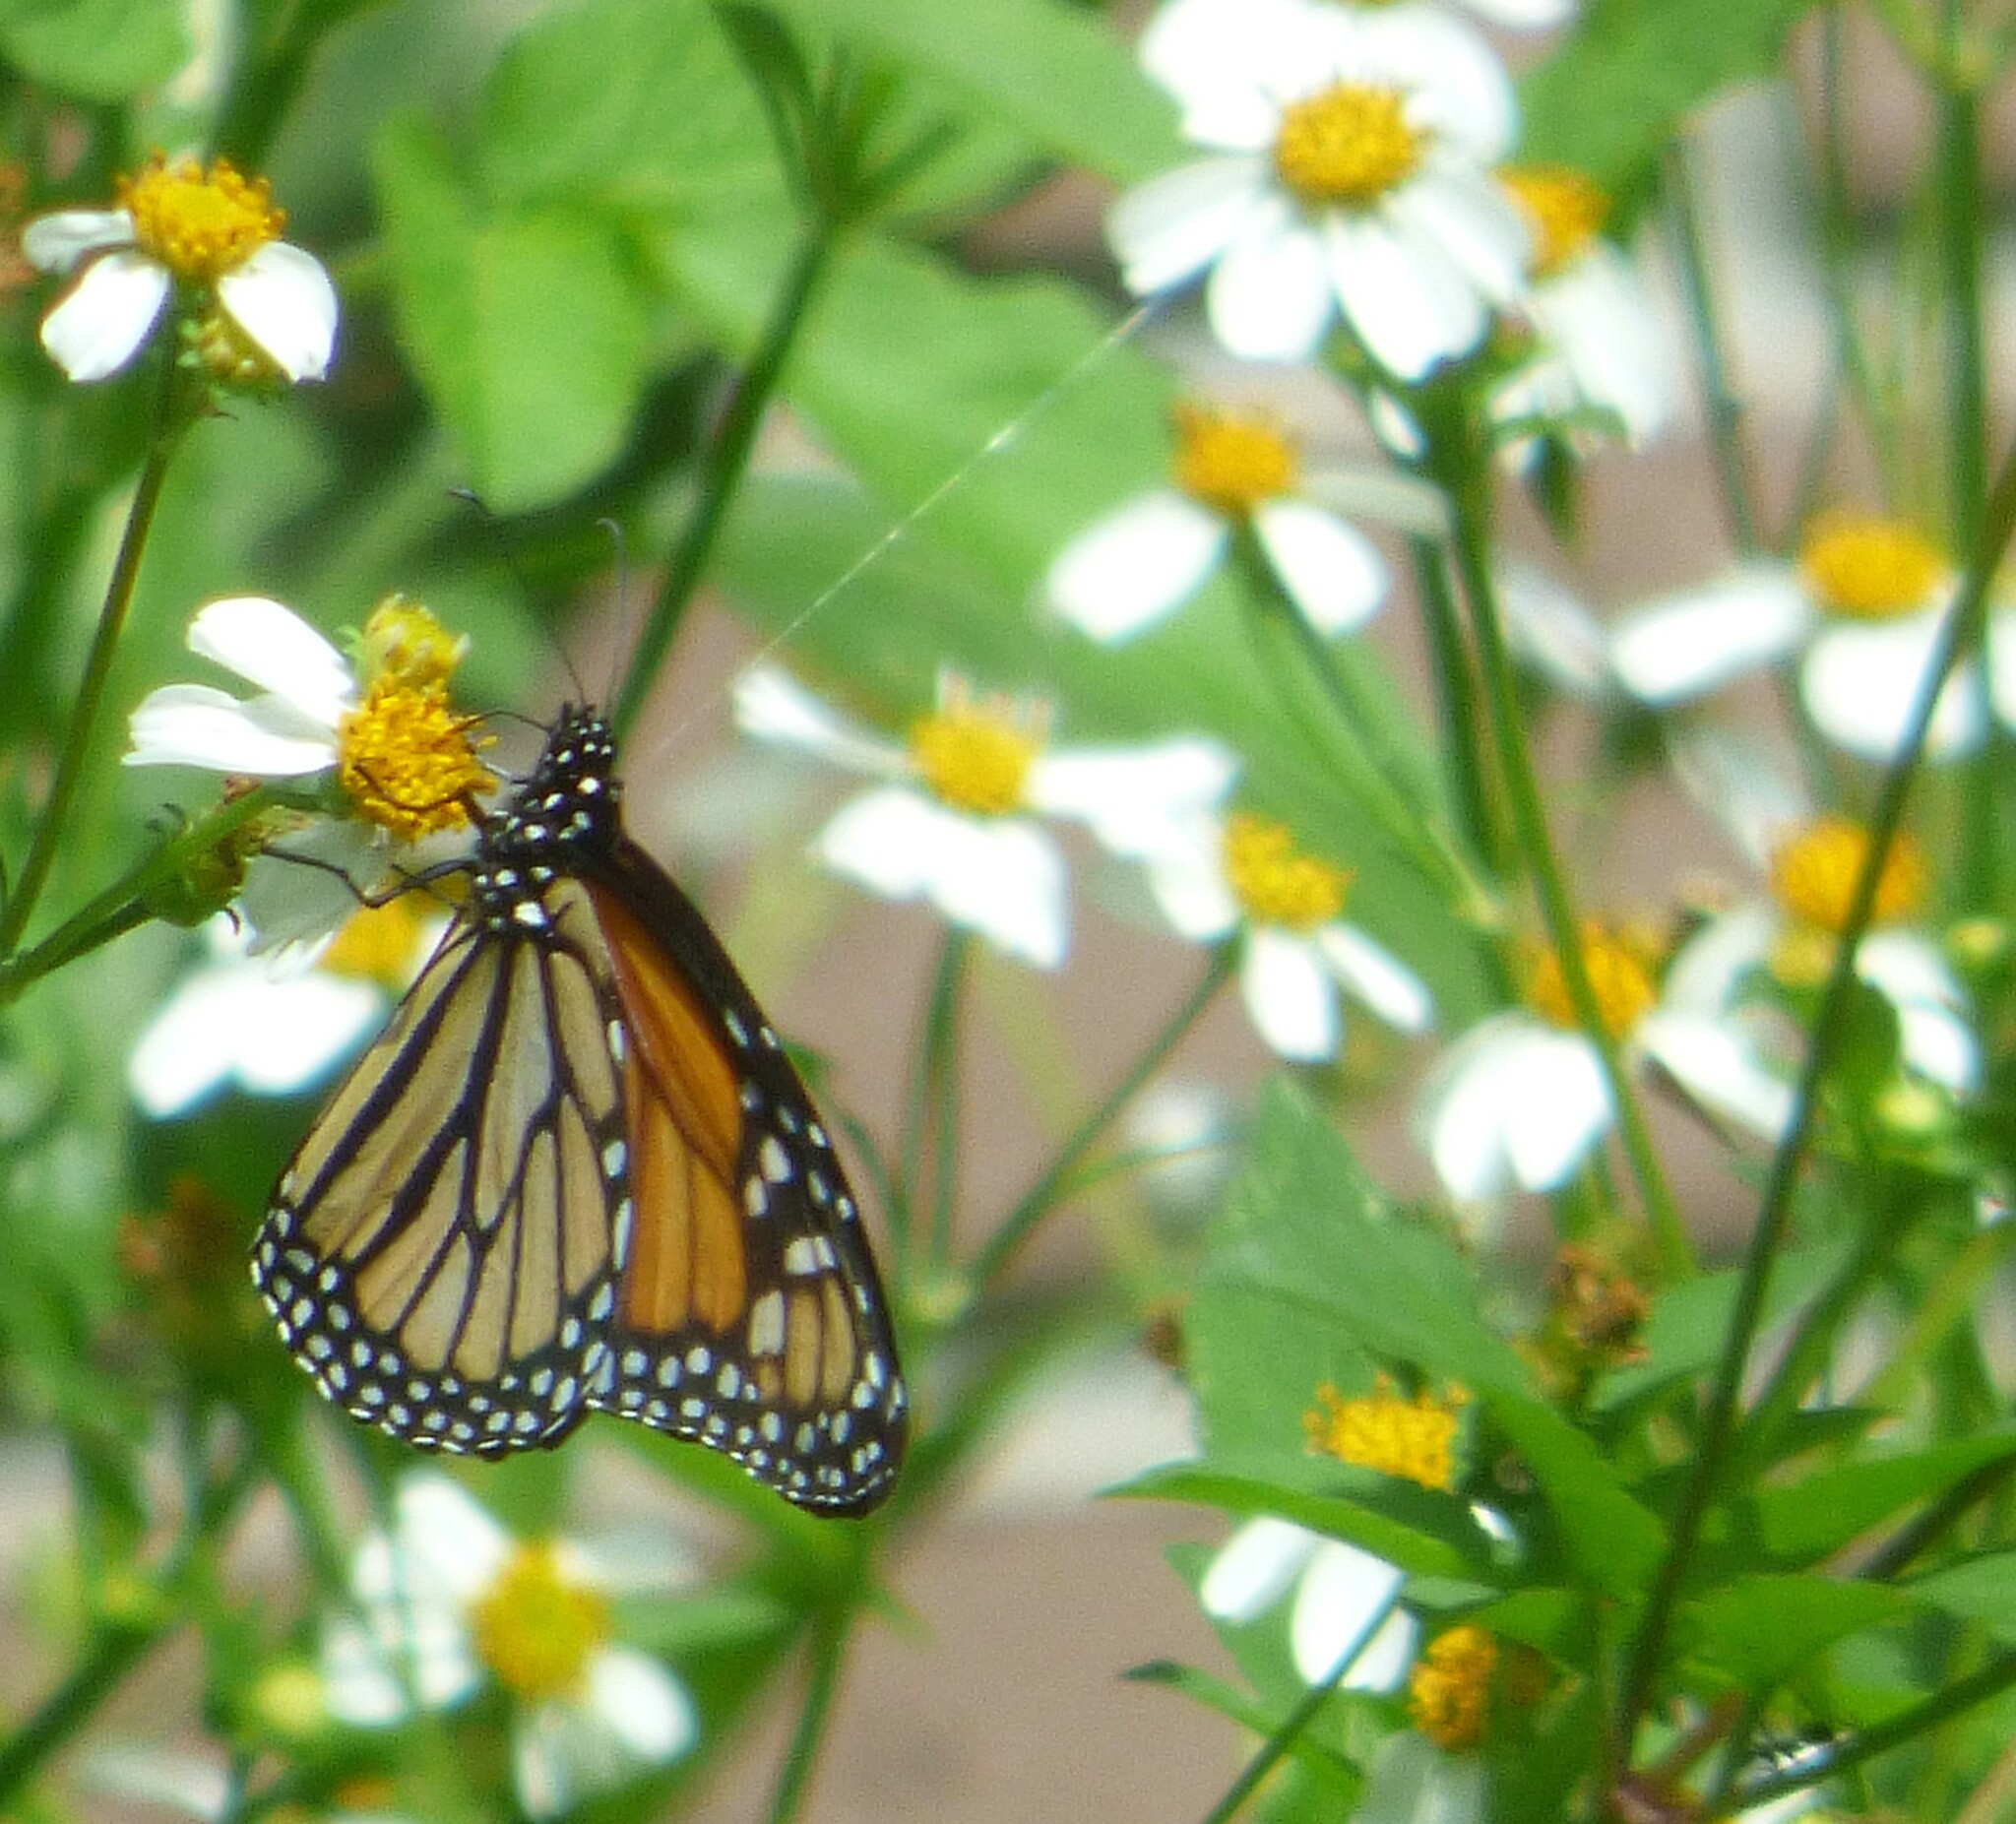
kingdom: Animalia
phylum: Arthropoda
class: Insecta
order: Lepidoptera
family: Nymphalidae
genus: Danaus
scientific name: Danaus plexippus
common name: Monarch
